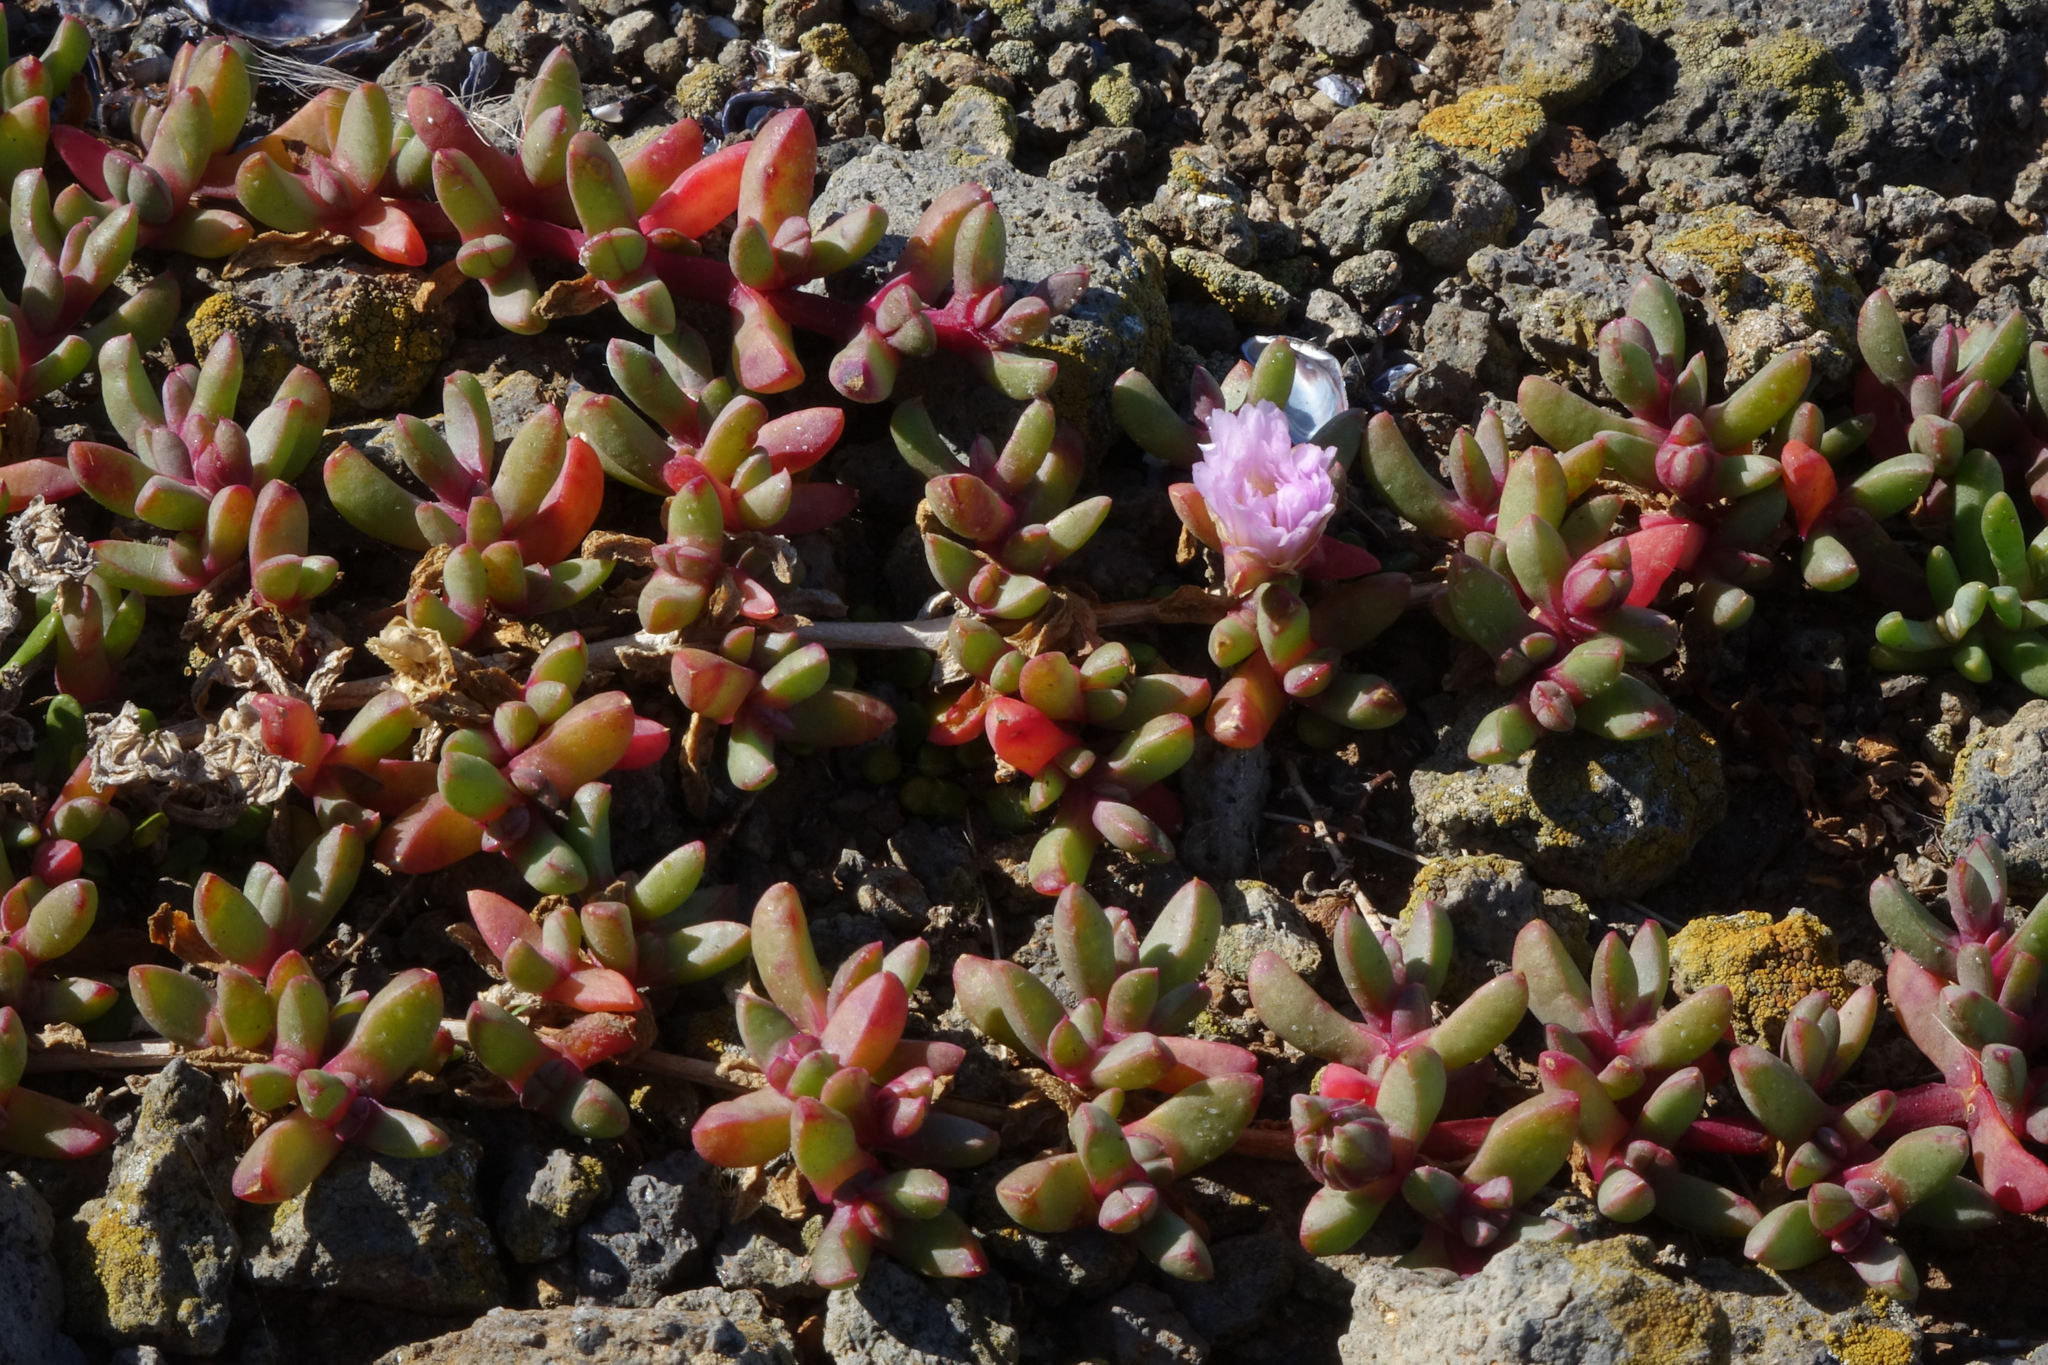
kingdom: Plantae
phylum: Tracheophyta
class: Magnoliopsida
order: Caryophyllales
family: Aizoaceae
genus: Disphyma
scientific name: Disphyma australe
